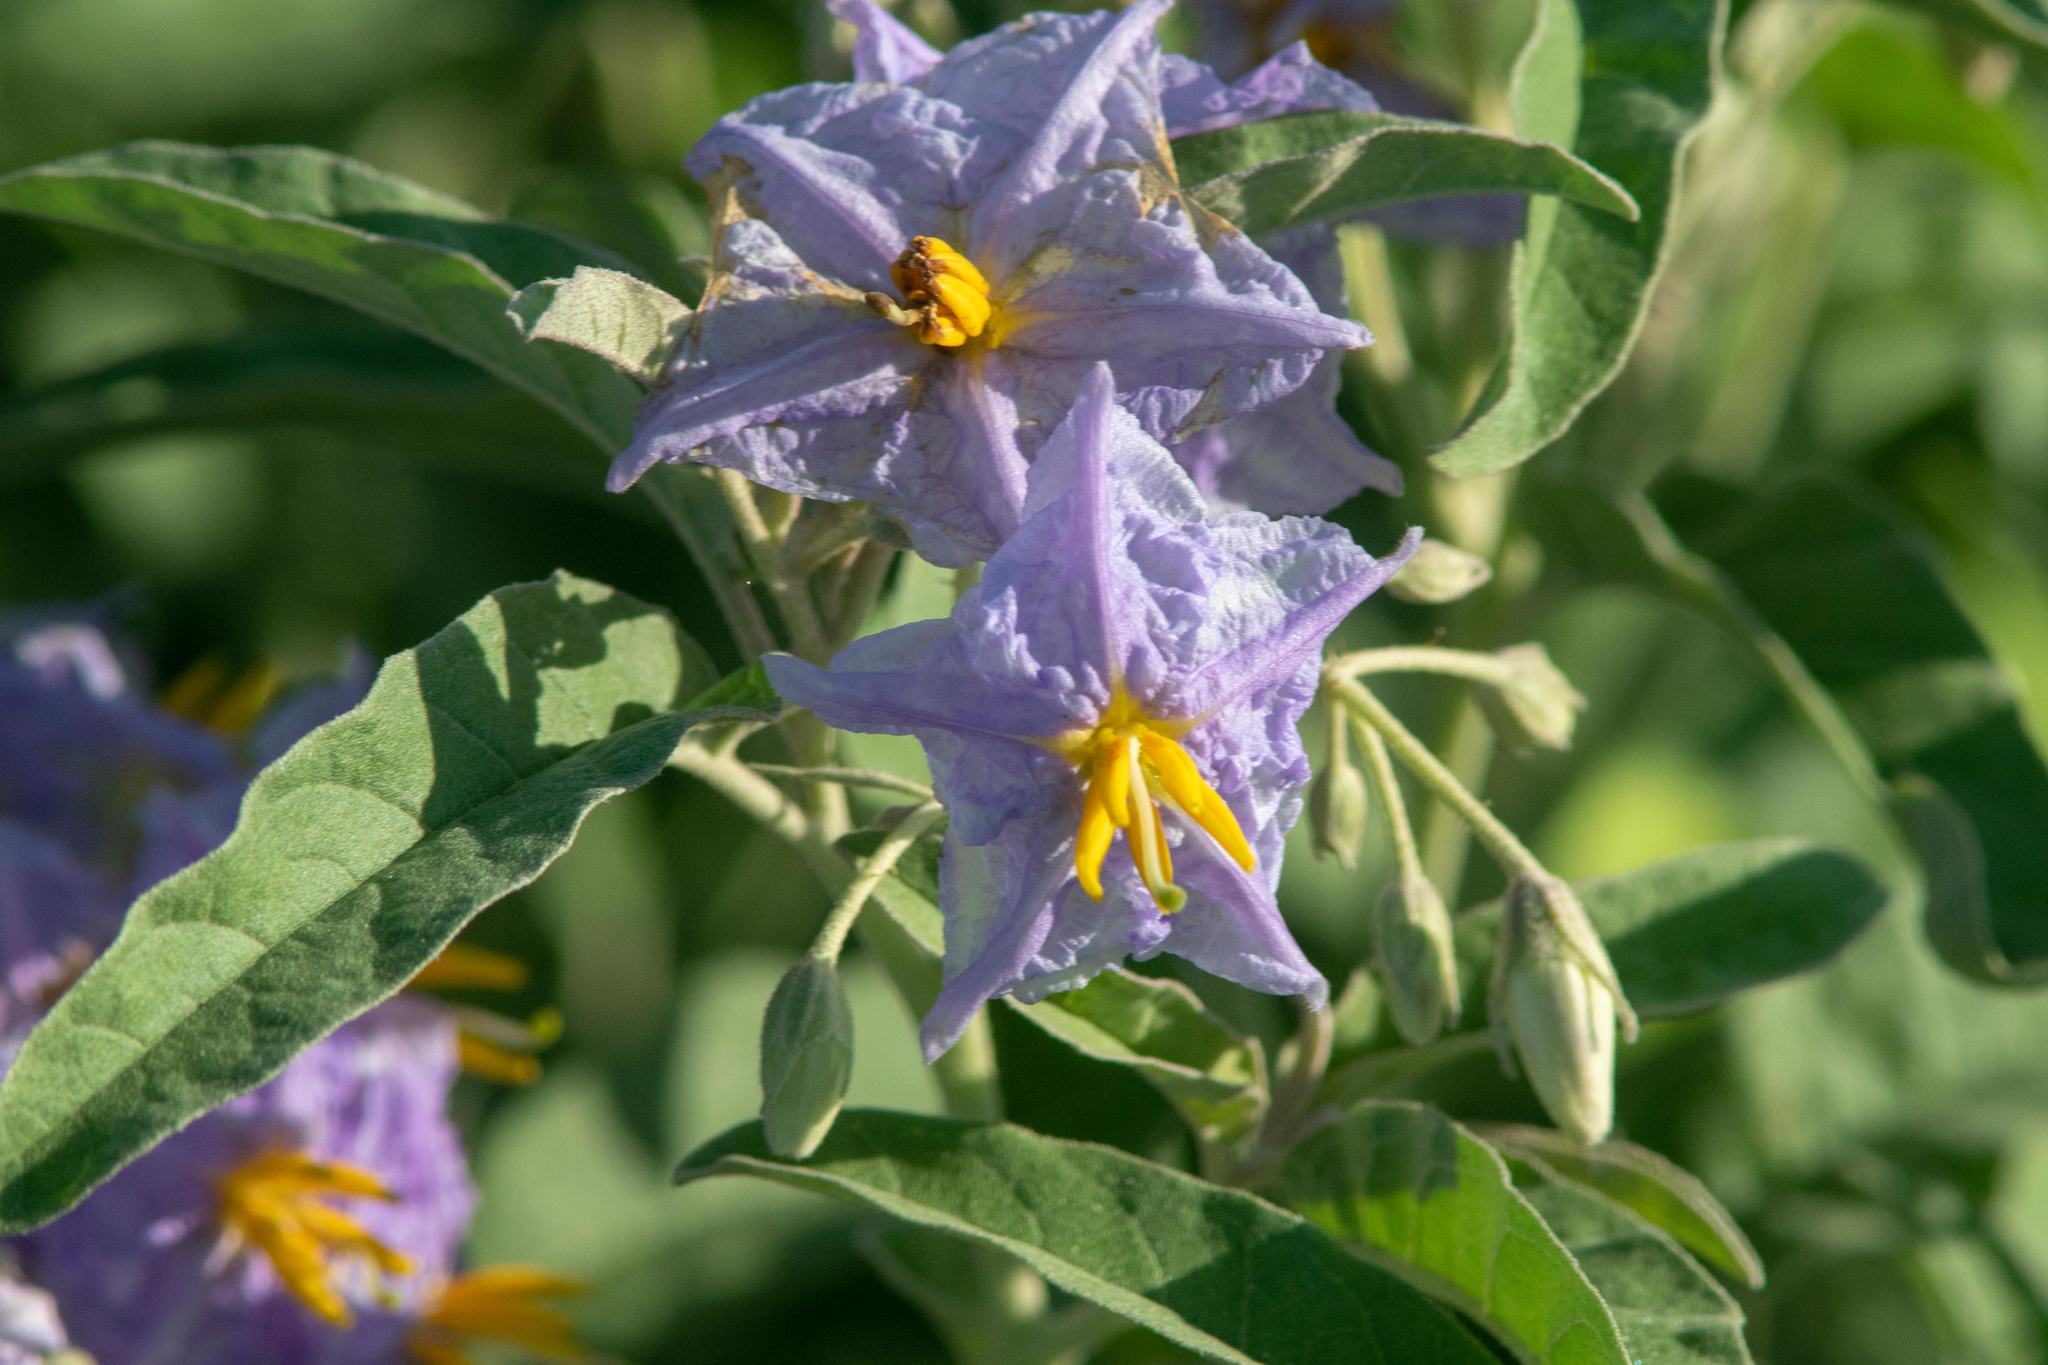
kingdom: Plantae
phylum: Tracheophyta
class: Magnoliopsida
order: Solanales
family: Solanaceae
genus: Solanum
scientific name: Solanum elaeagnifolium
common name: Silverleaf nightshade
